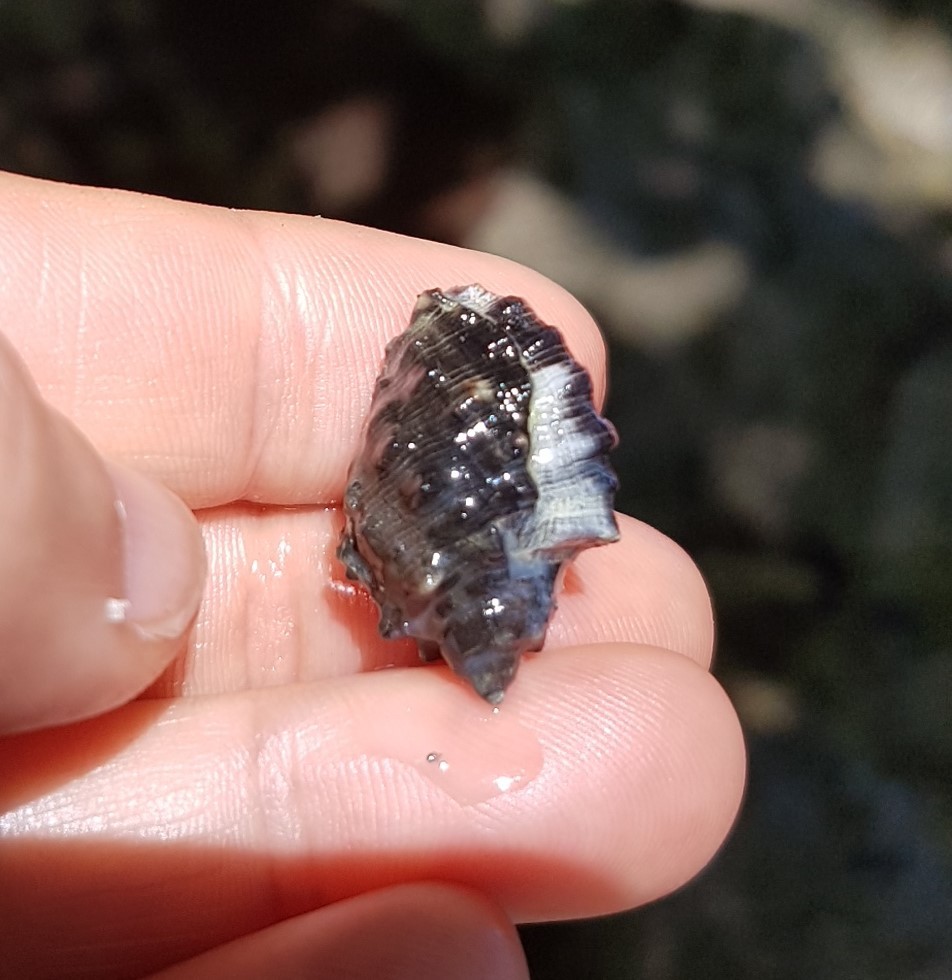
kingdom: Animalia
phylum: Mollusca
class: Gastropoda
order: Neogastropoda
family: Muricidae
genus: Plicopurpura
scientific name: Plicopurpura patula
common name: Wide-mouthed dye shell
